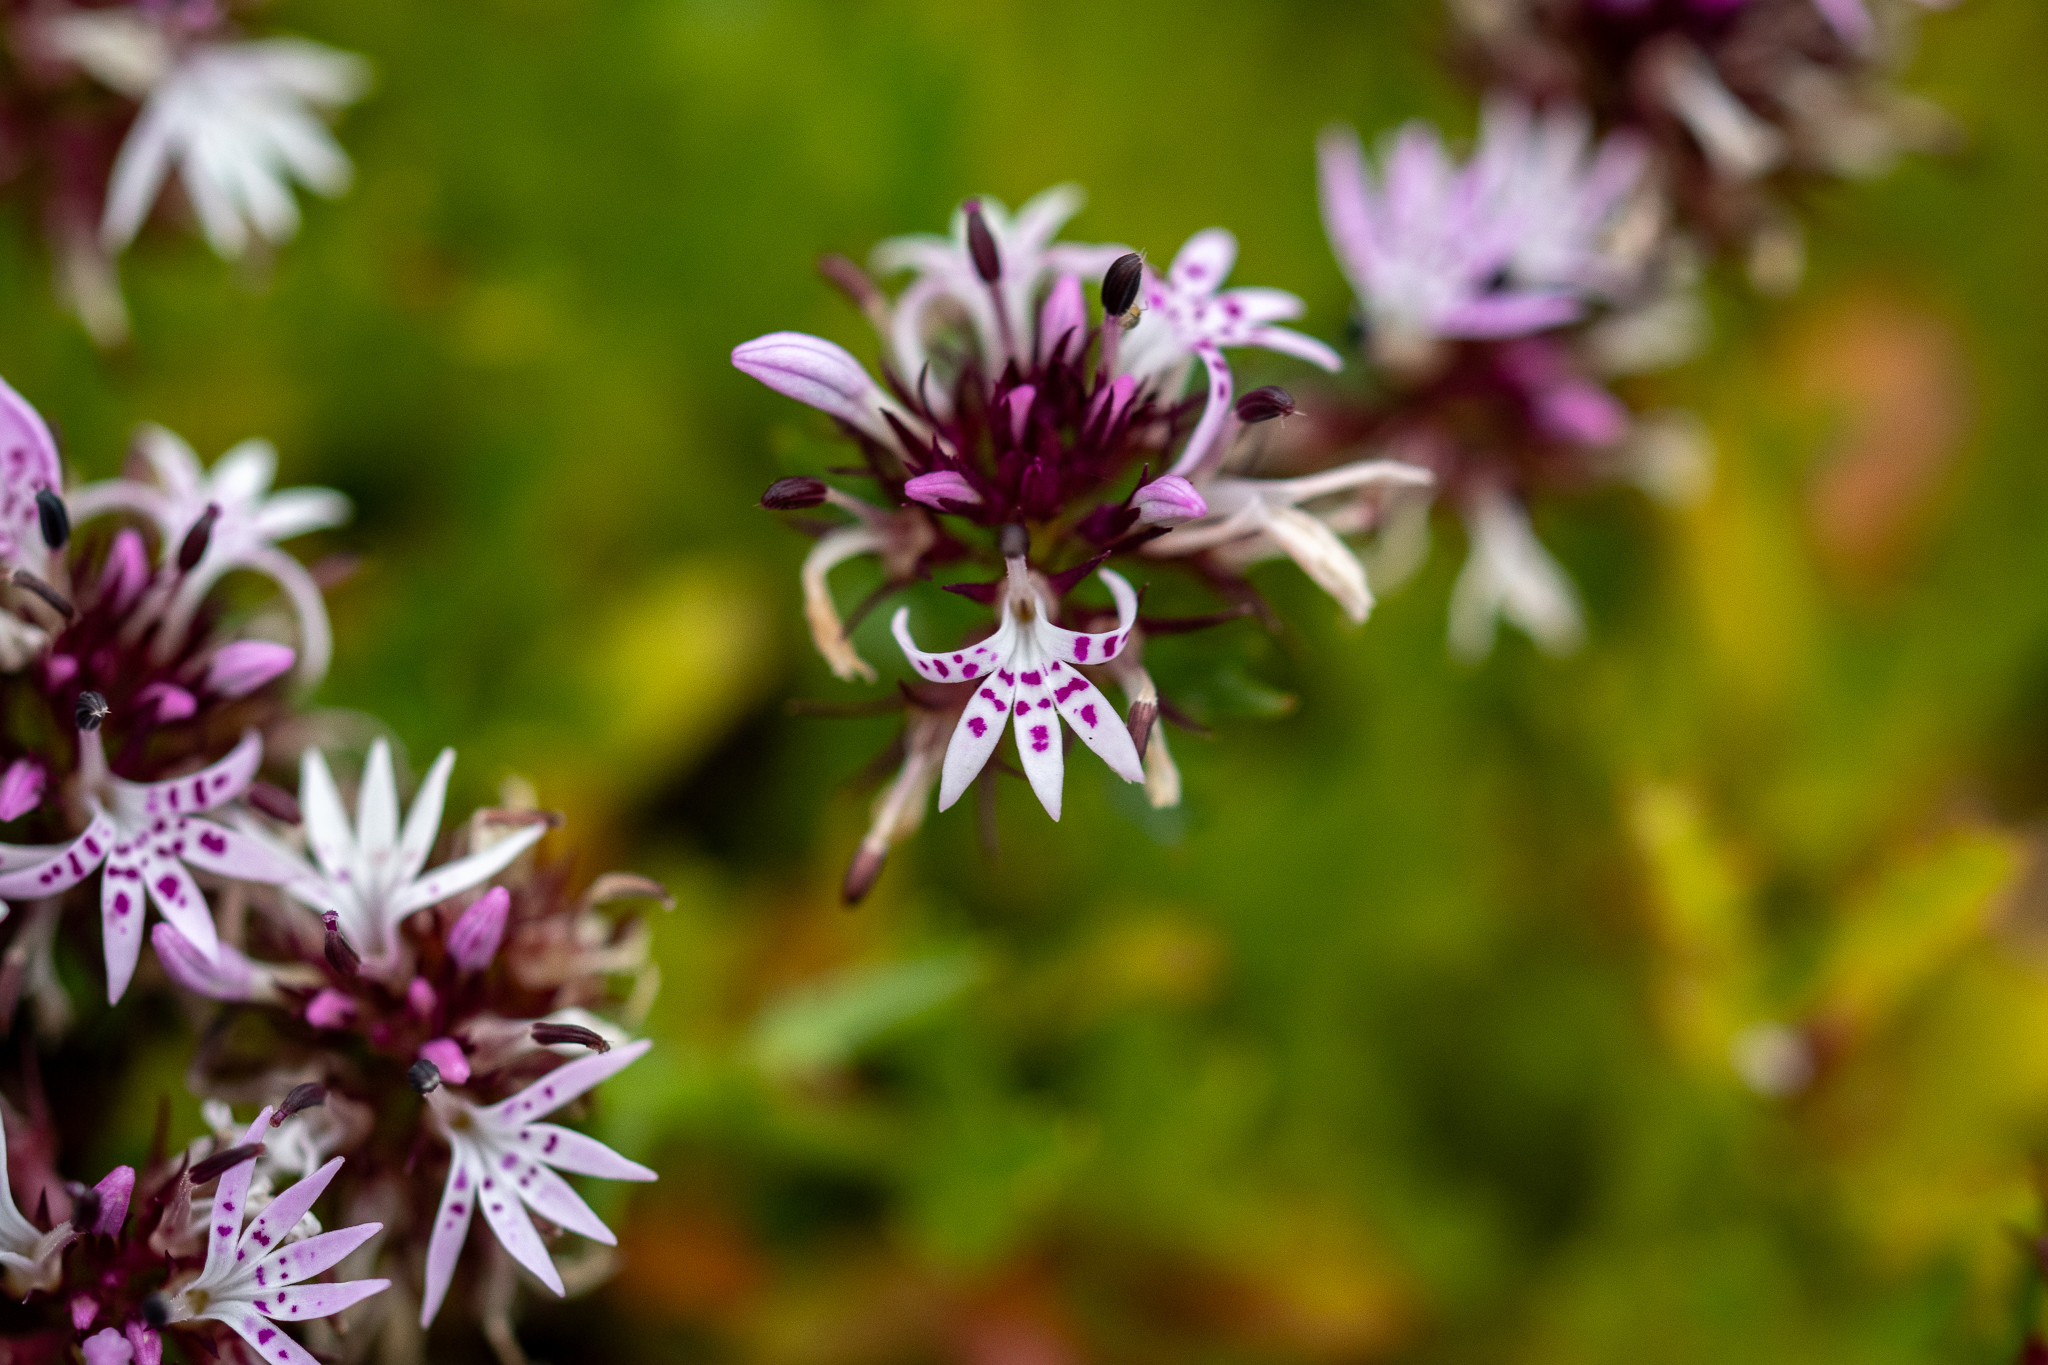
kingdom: Plantae
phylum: Tracheophyta
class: Magnoliopsida
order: Asterales
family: Campanulaceae
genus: Lobelia
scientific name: Lobelia jasionoides
